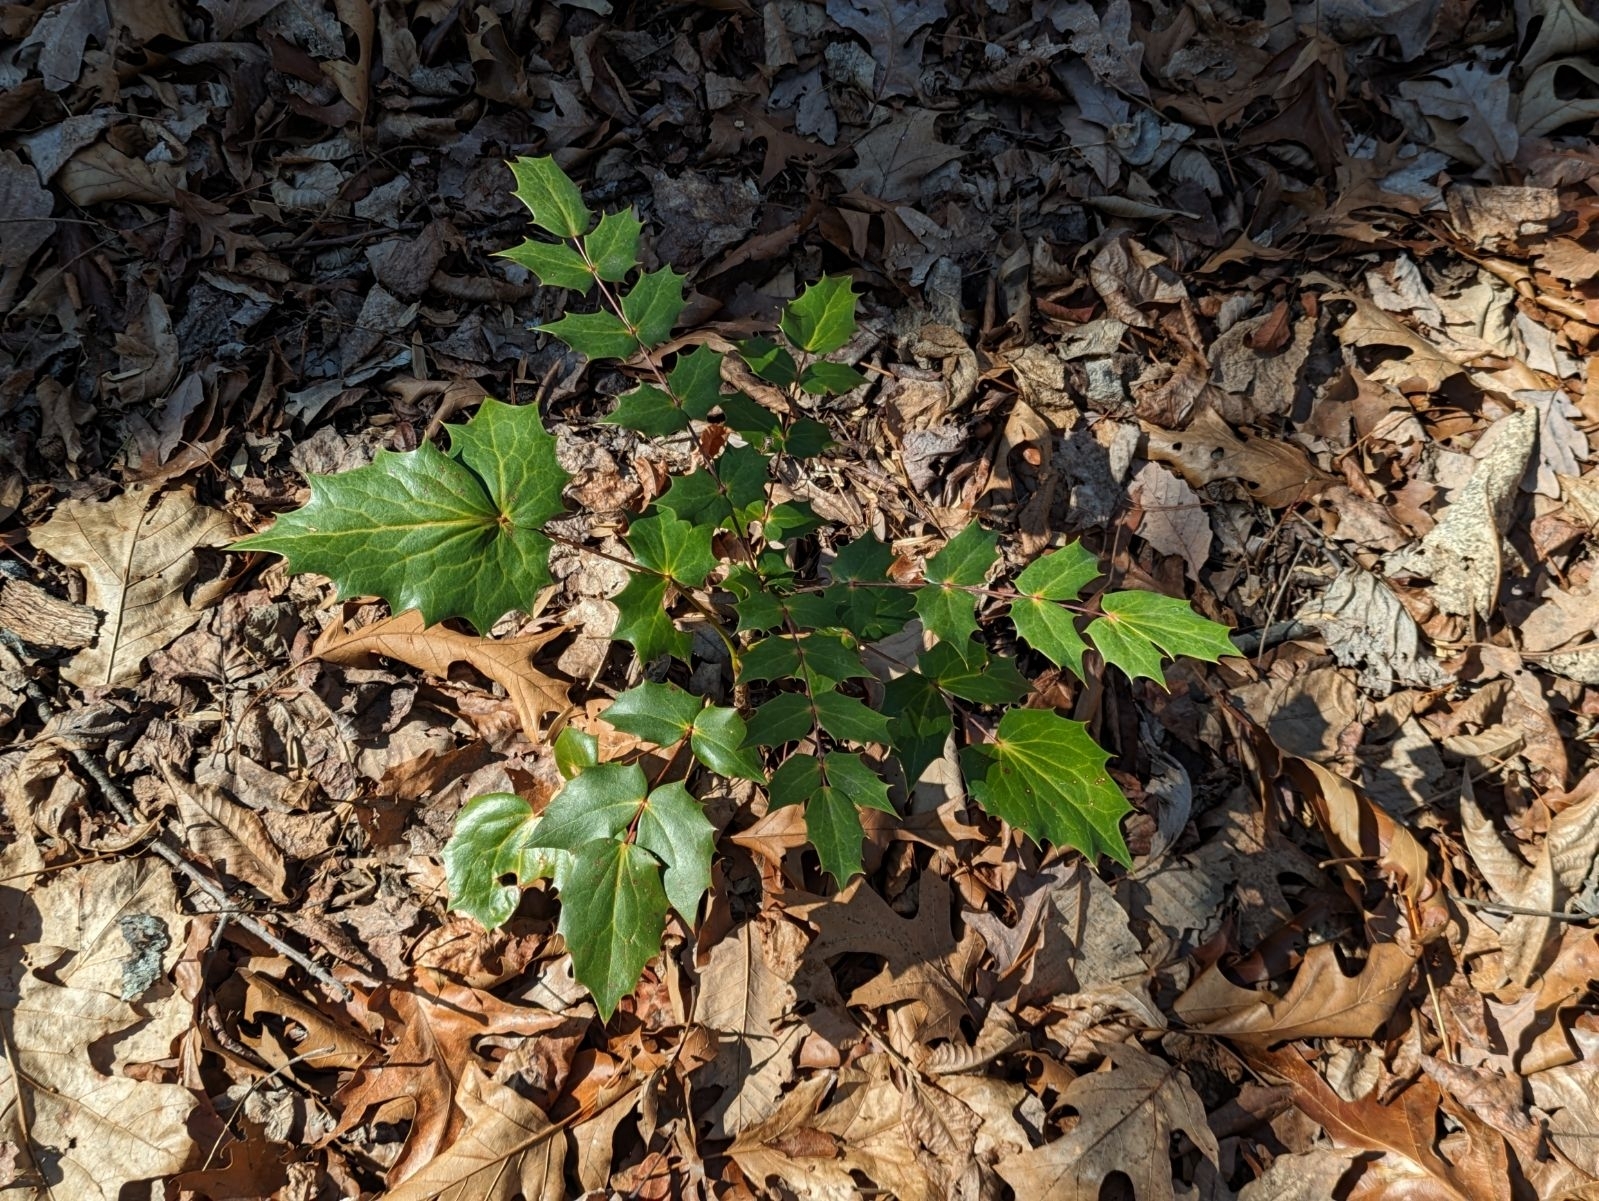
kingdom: Plantae
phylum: Tracheophyta
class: Magnoliopsida
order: Ranunculales
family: Berberidaceae
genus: Mahonia
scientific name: Mahonia bealei
